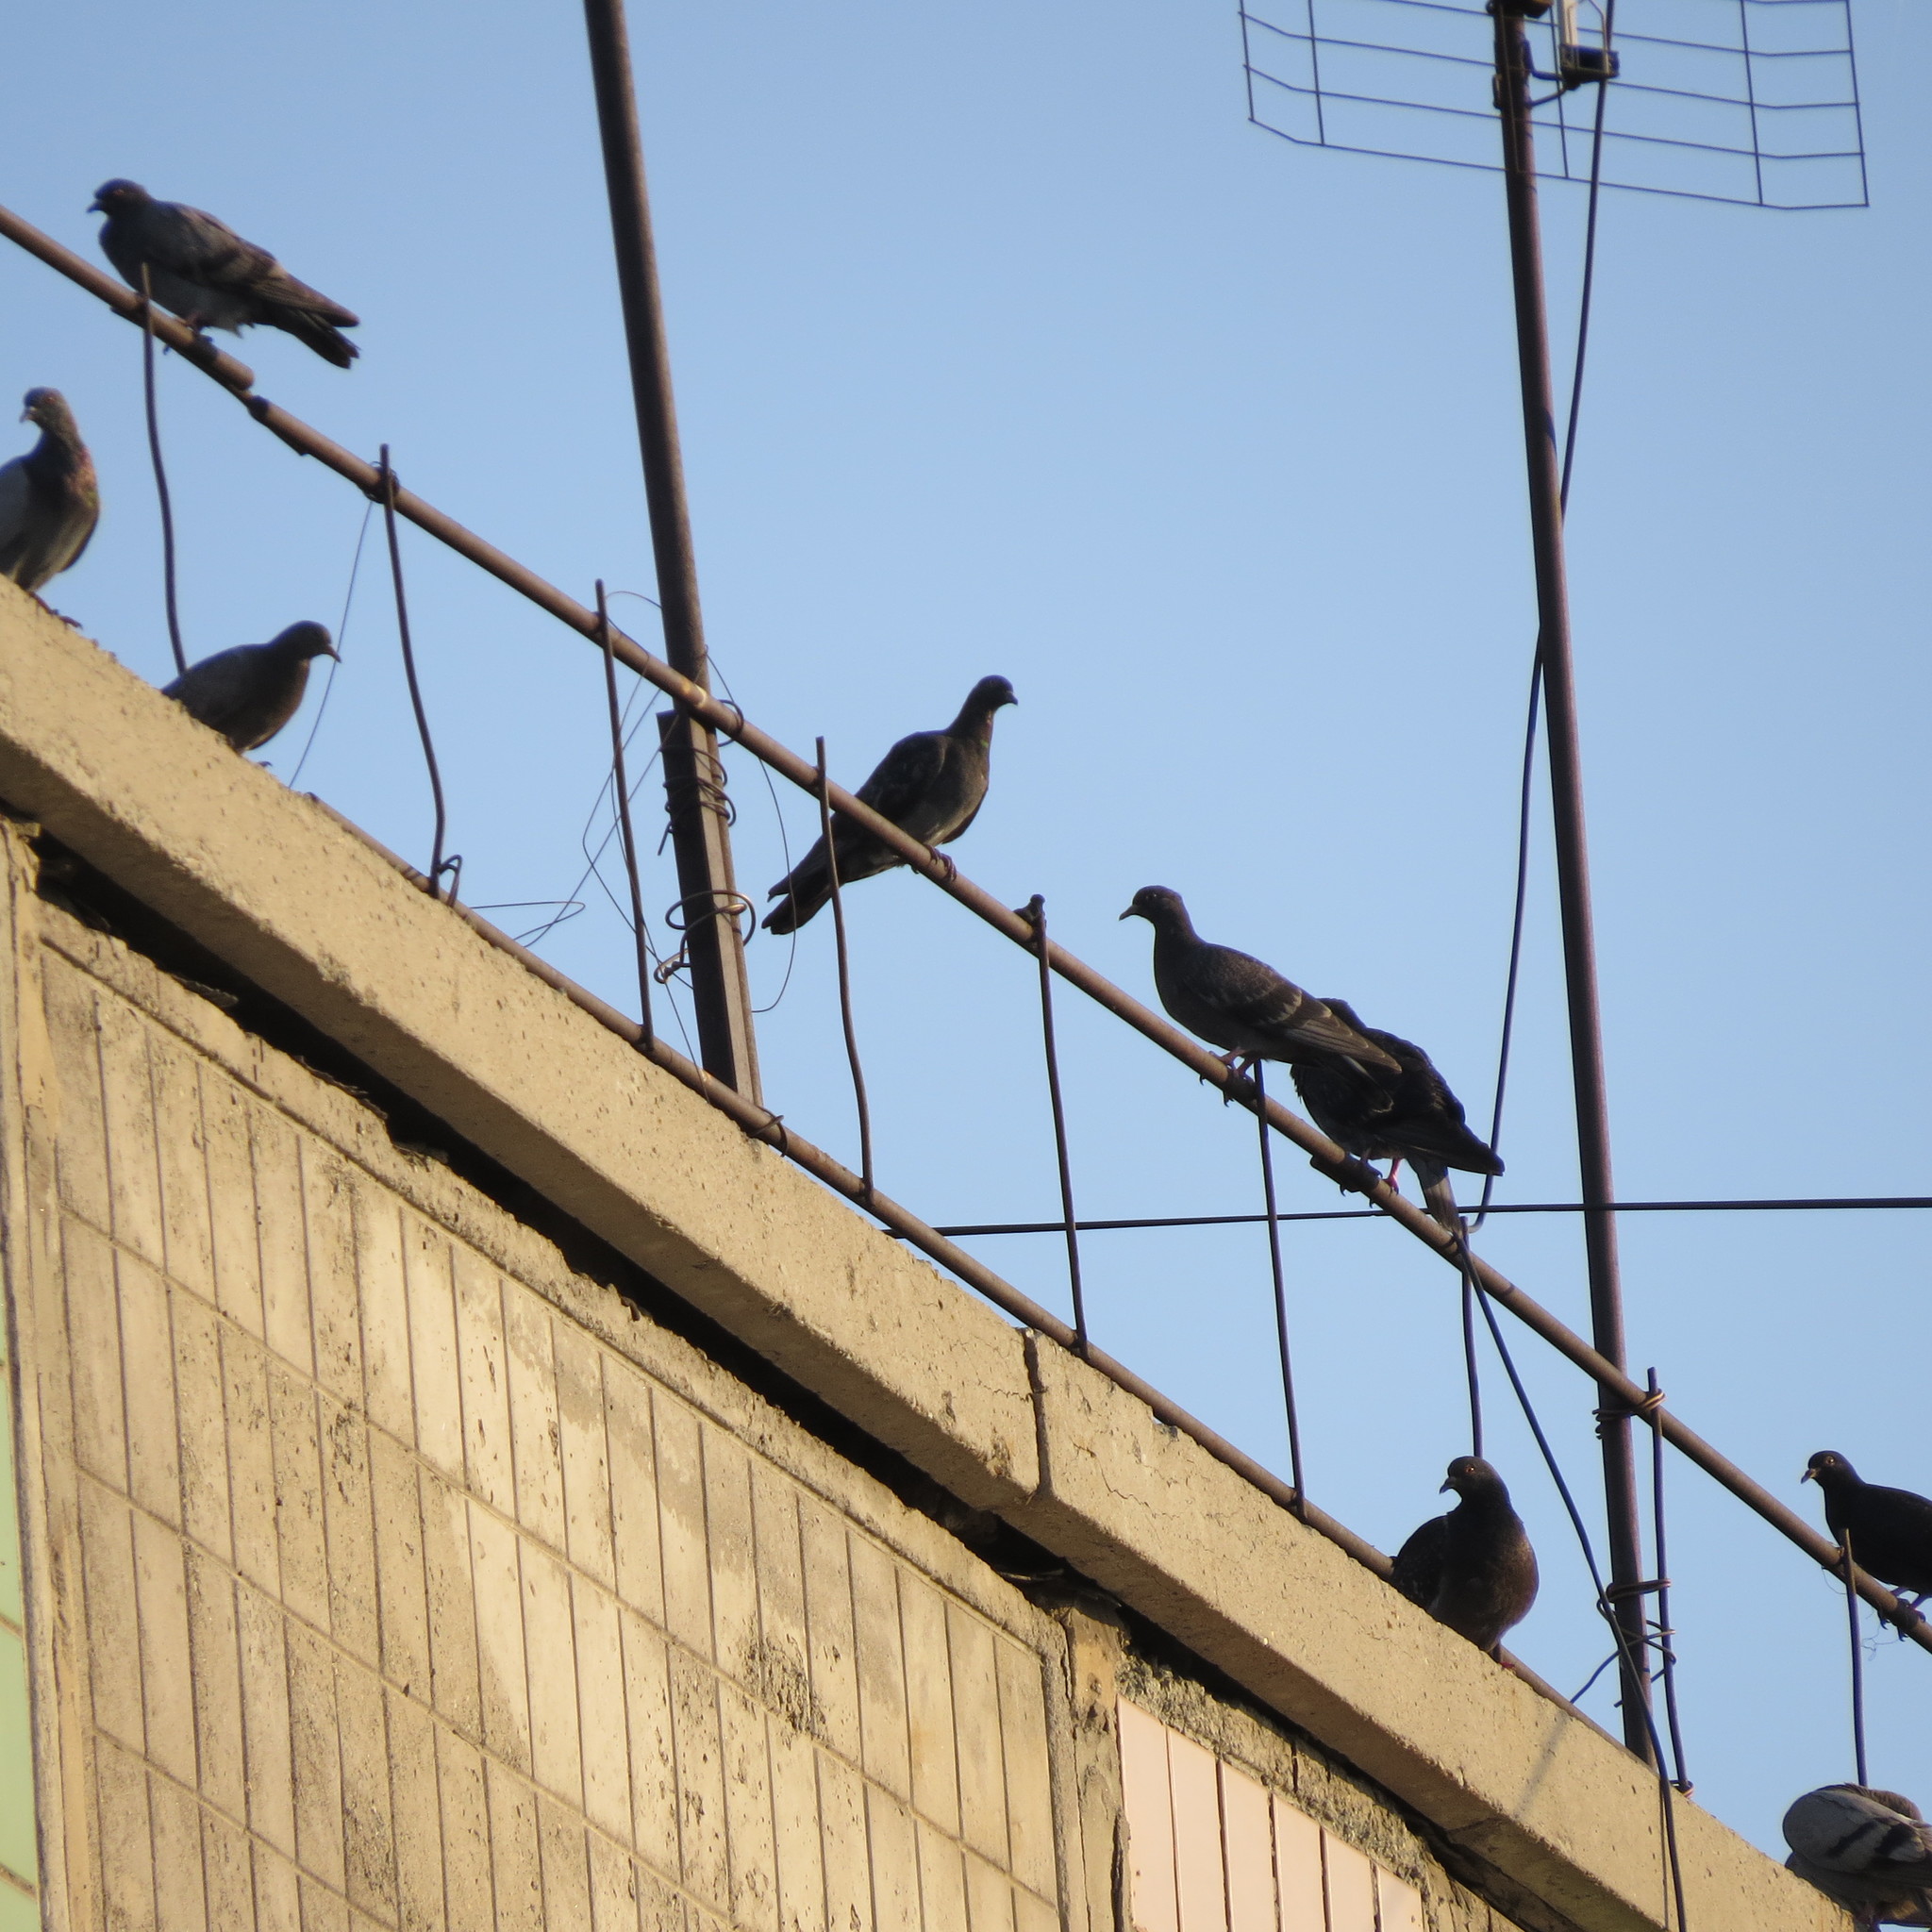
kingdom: Animalia
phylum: Chordata
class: Aves
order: Columbiformes
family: Columbidae
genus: Columba
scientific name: Columba livia
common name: Rock pigeon
